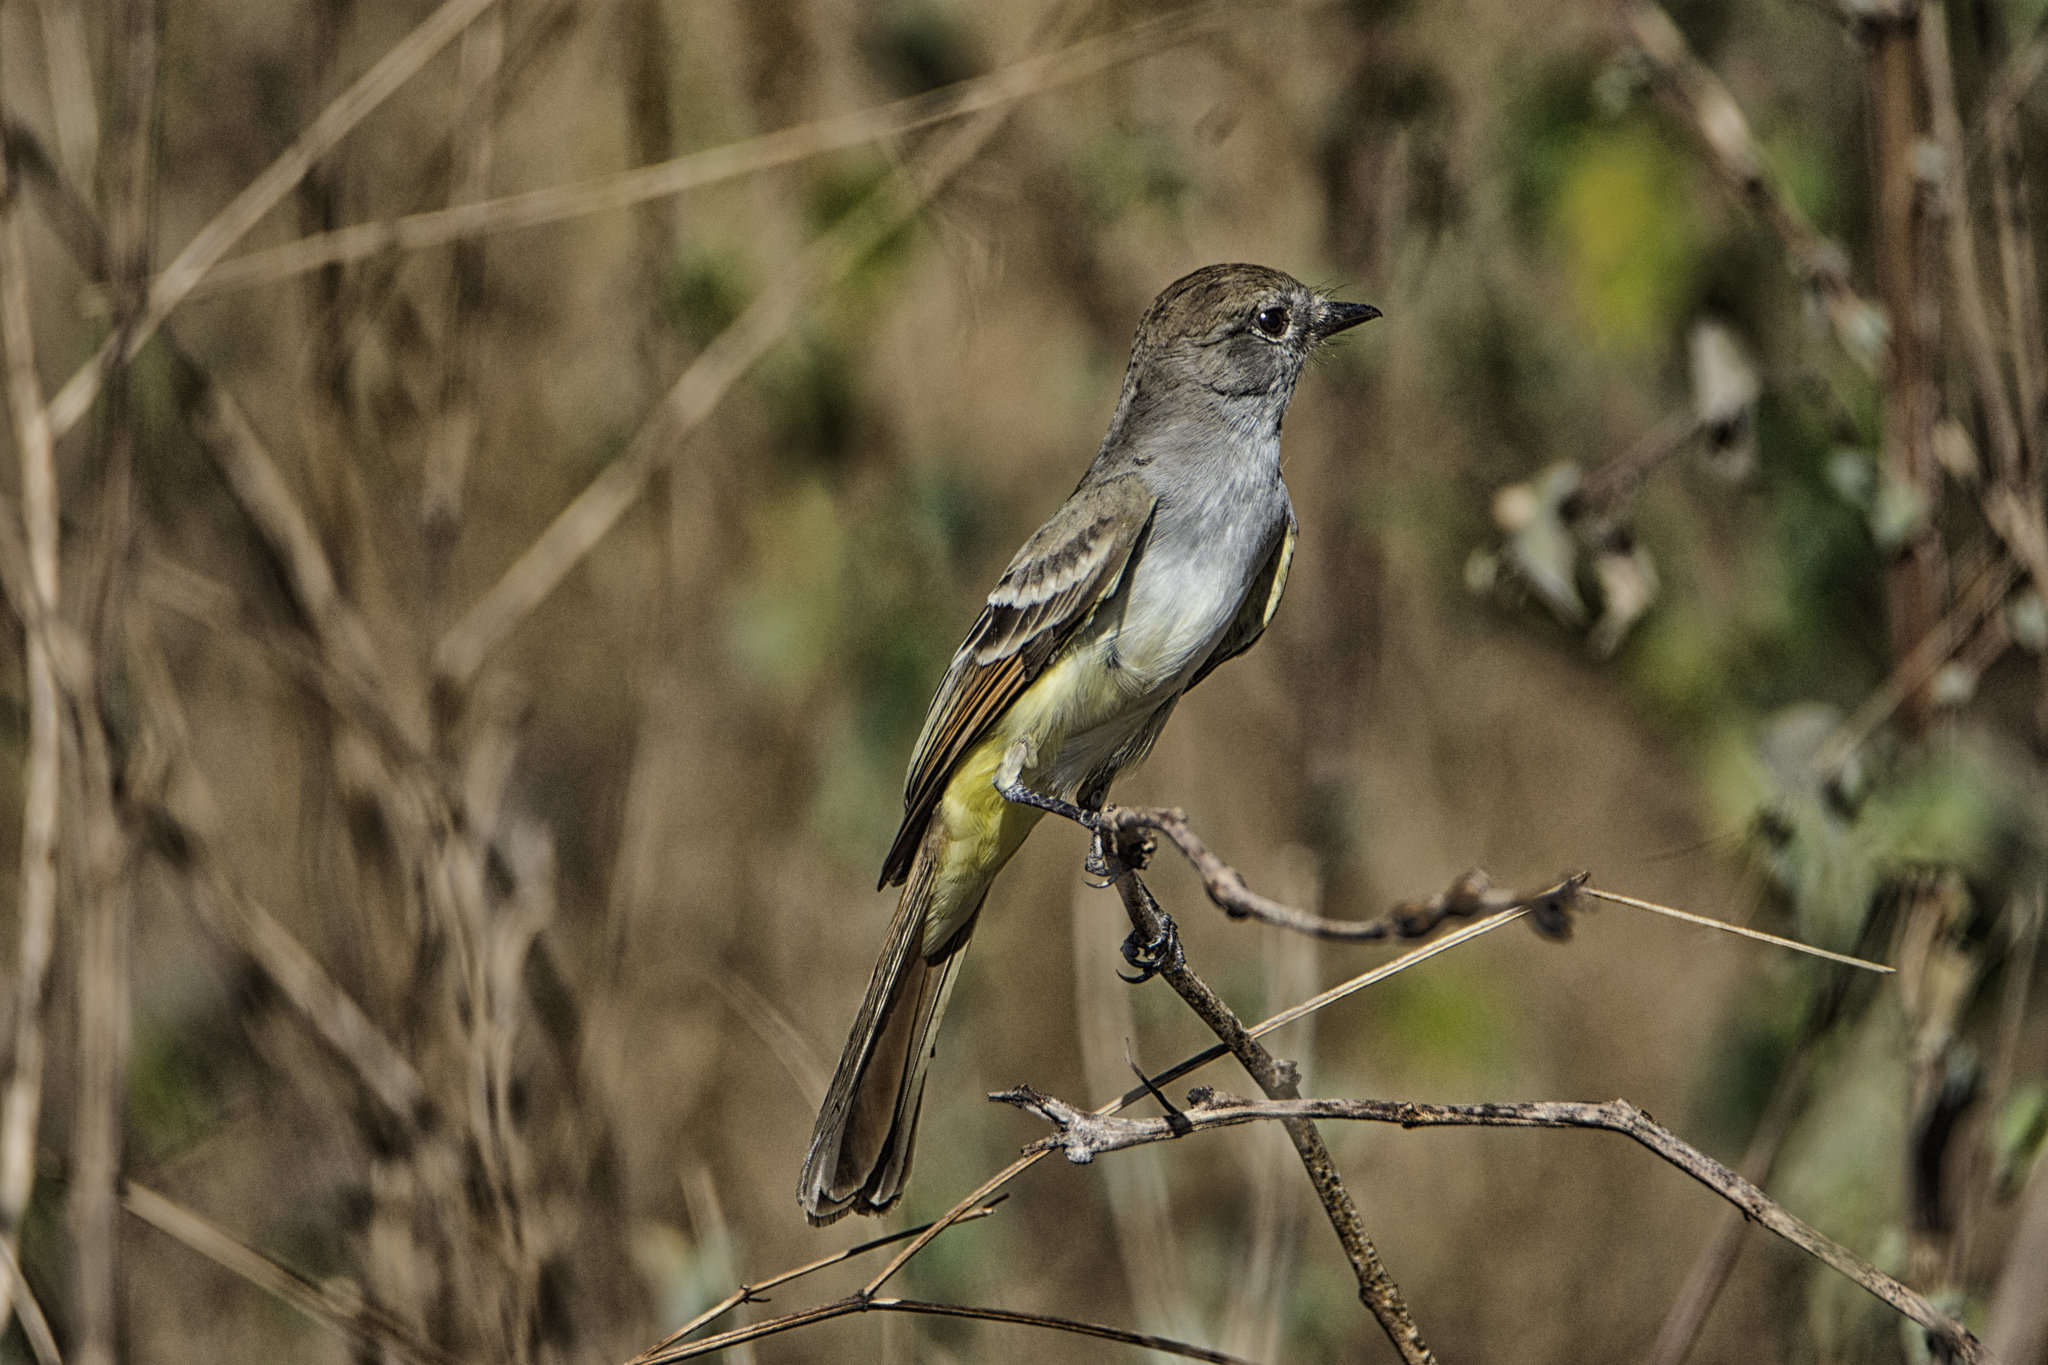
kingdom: Animalia
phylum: Chordata
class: Aves
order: Passeriformes
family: Tyrannidae
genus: Myiarchus
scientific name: Myiarchus nuttingi
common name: Nutting's flycatcher
